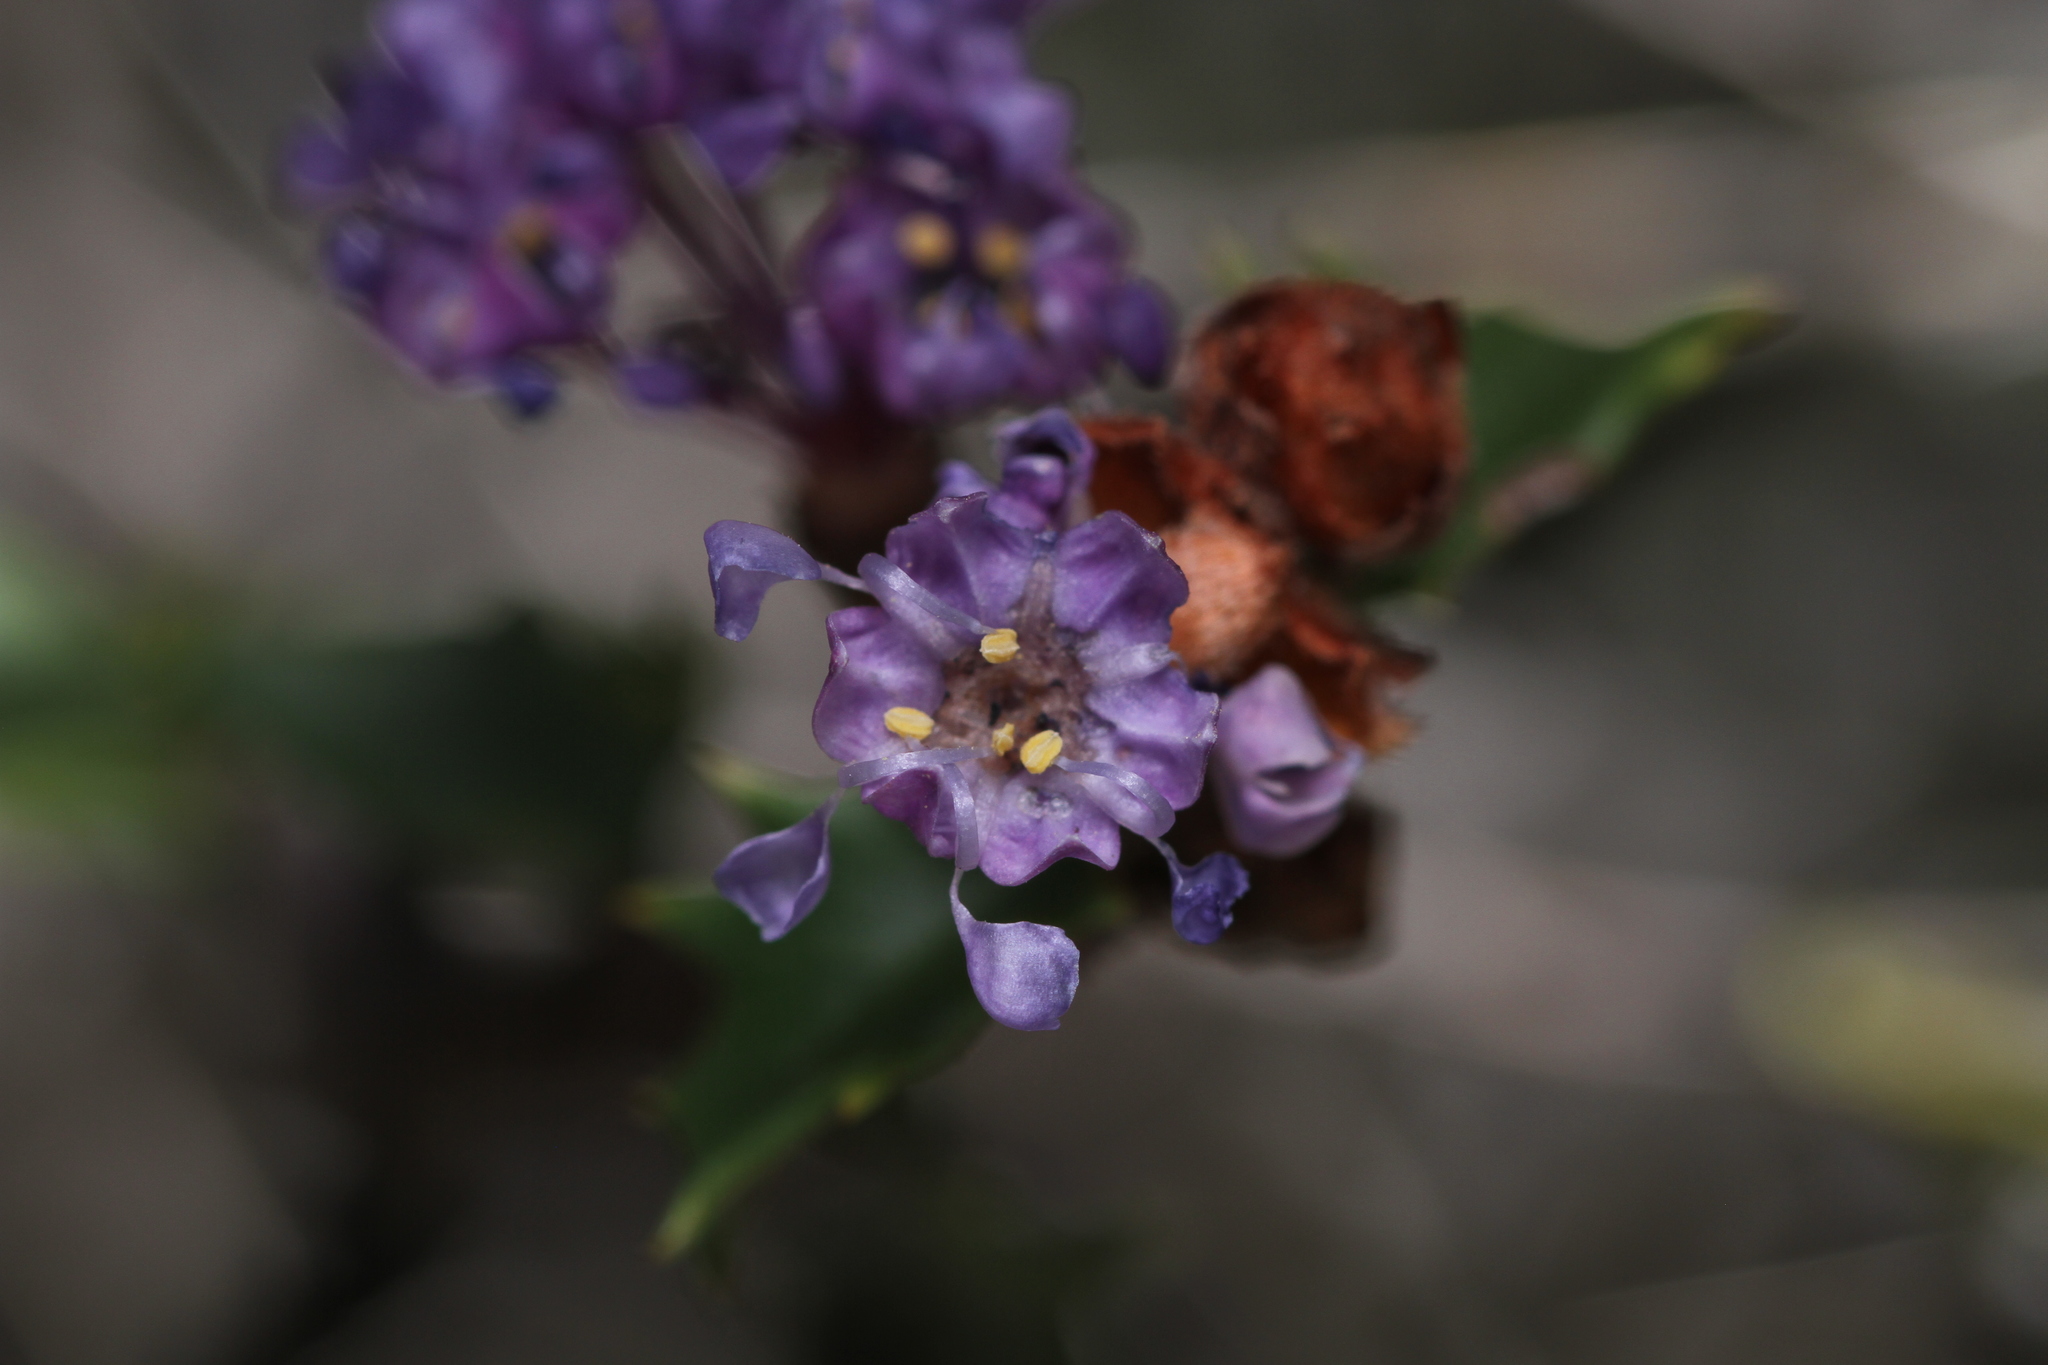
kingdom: Plantae
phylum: Tracheophyta
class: Magnoliopsida
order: Rosales
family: Rhamnaceae
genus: Ceanothus
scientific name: Ceanothus jepsonii
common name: Muskbrush
